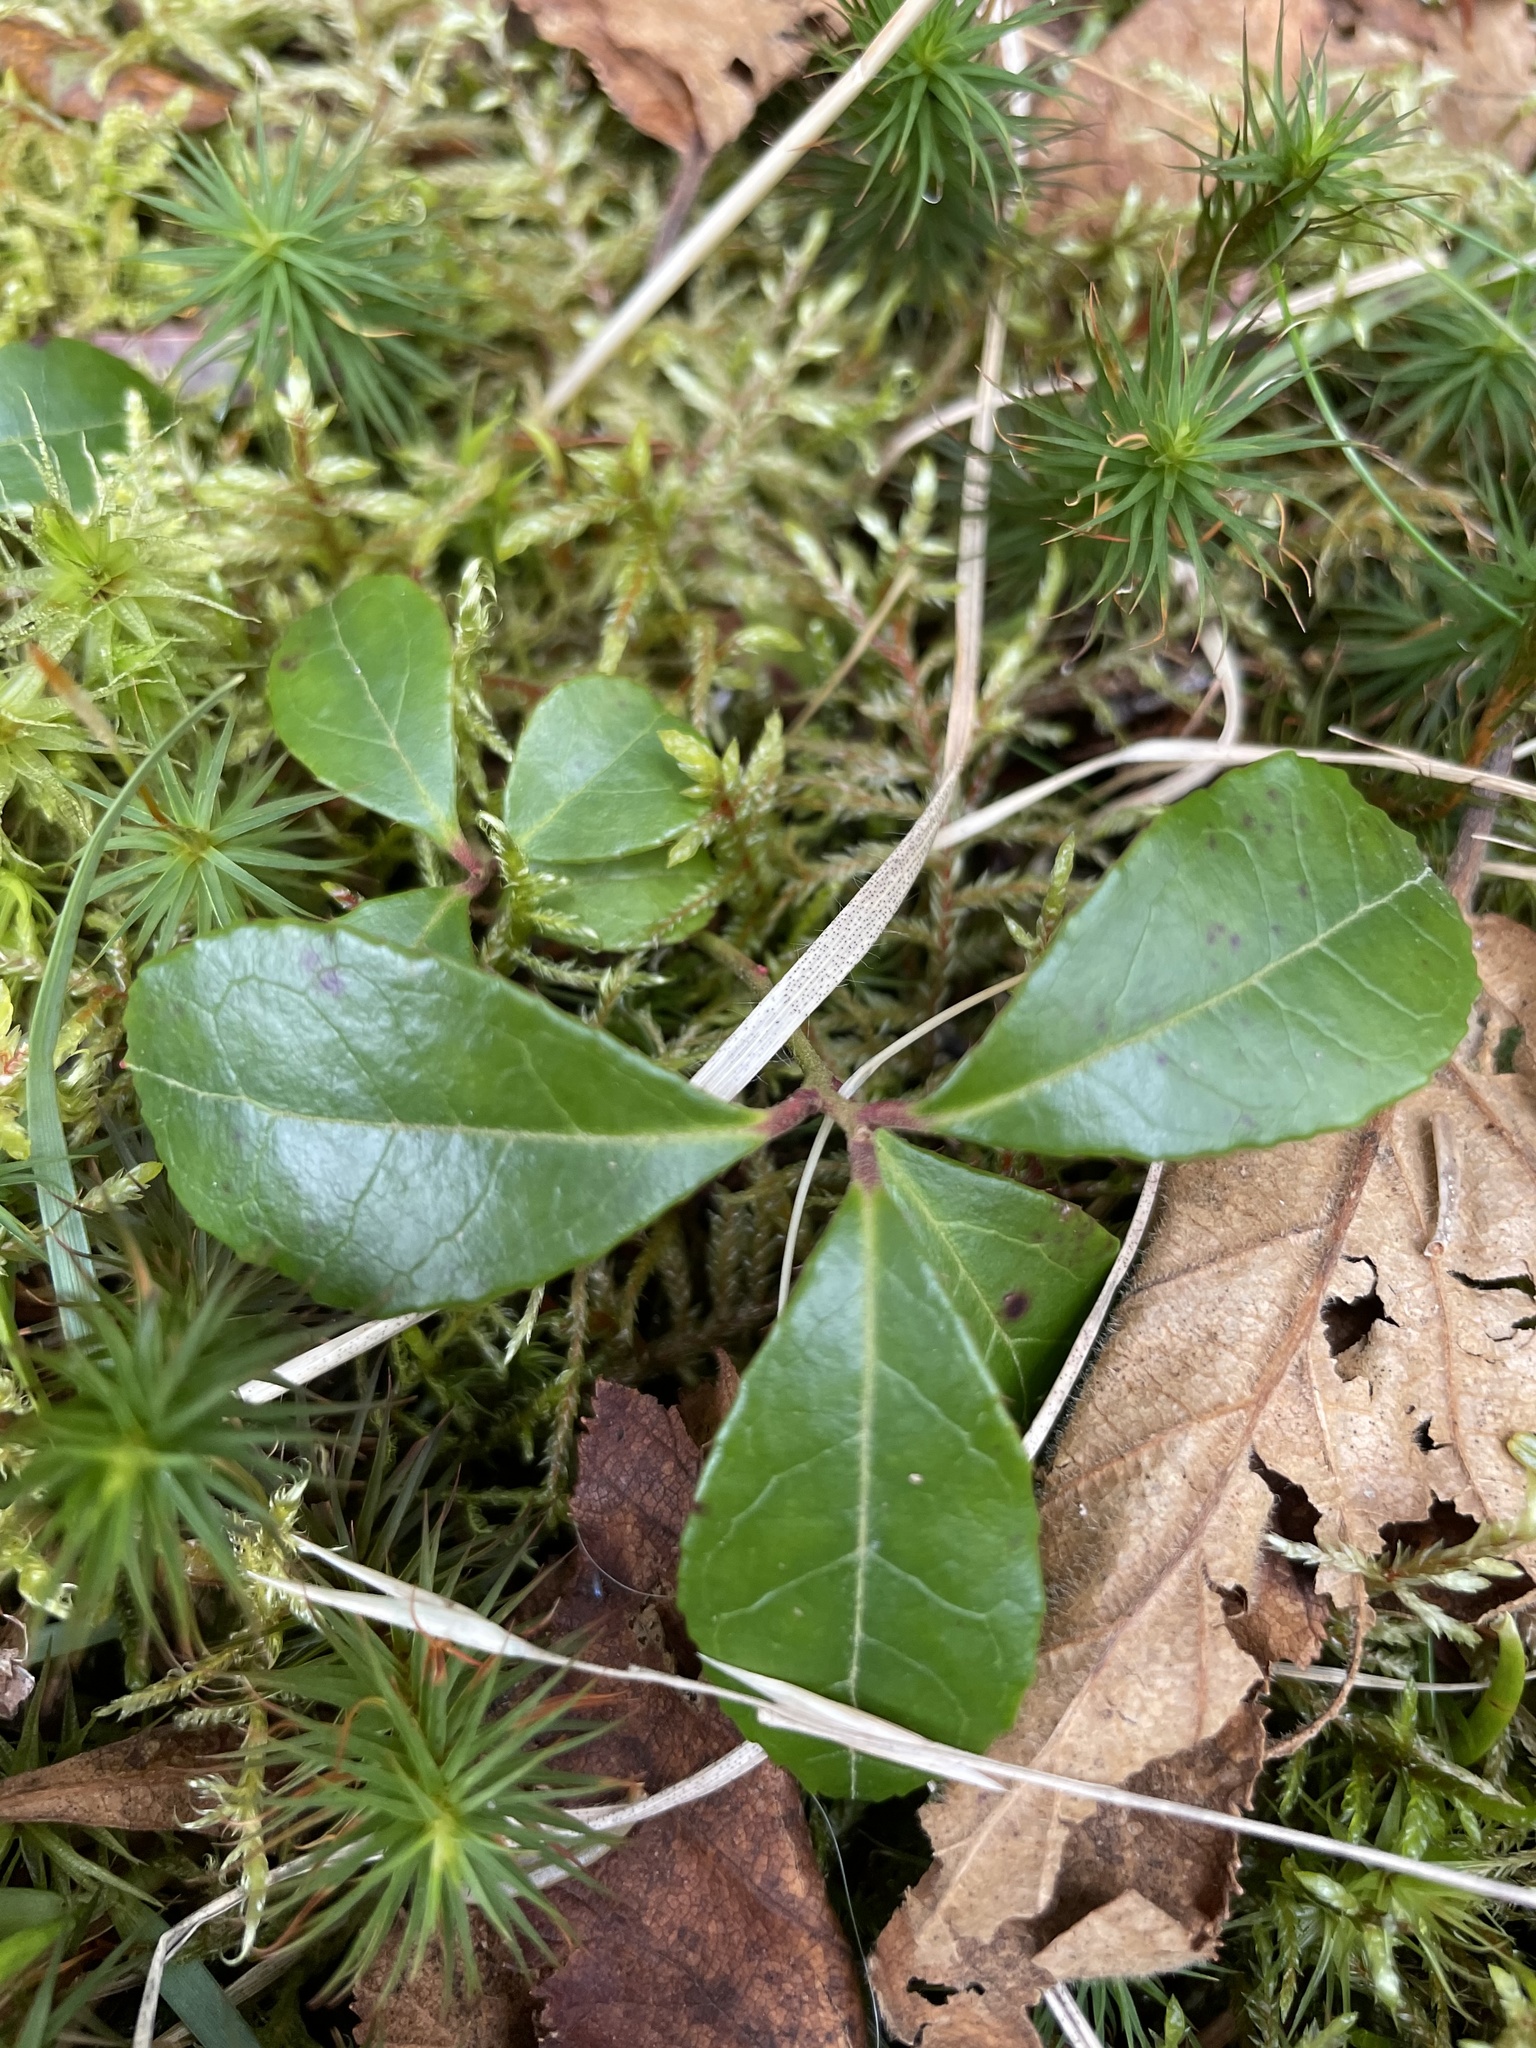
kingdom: Plantae
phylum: Tracheophyta
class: Magnoliopsida
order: Ericales
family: Ericaceae
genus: Gaultheria
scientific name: Gaultheria procumbens
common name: Checkerberry
